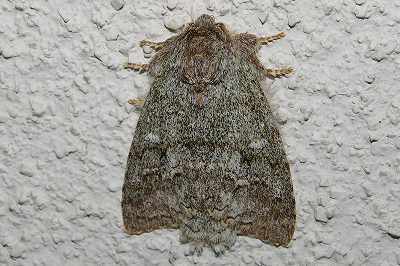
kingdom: Animalia
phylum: Arthropoda
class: Insecta
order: Lepidoptera
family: Notodontidae
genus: Mesophalera
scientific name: Mesophalera sigmata
